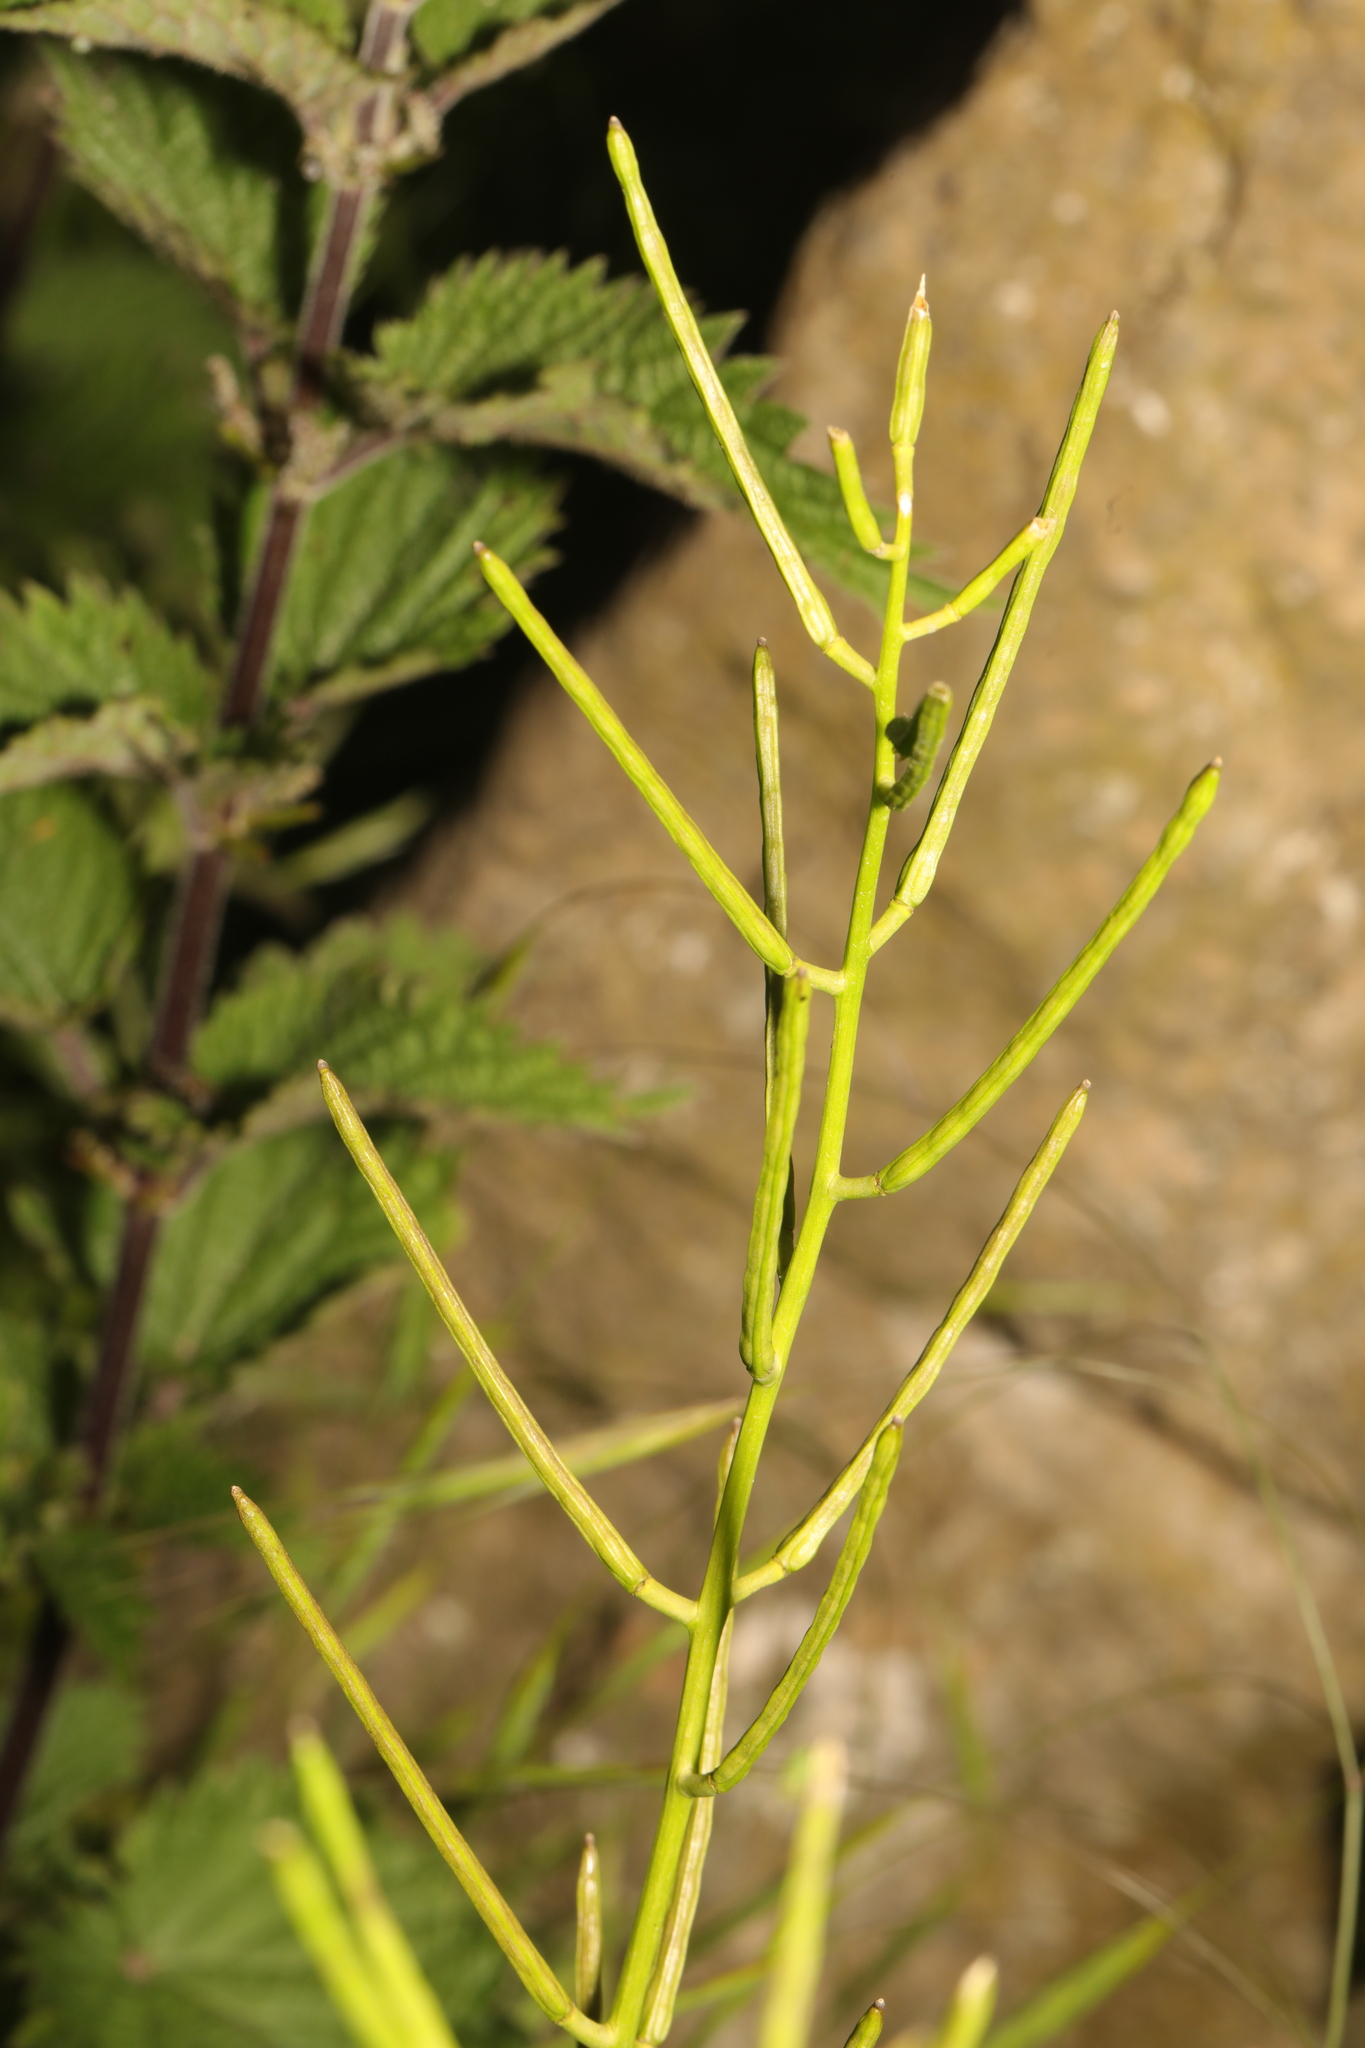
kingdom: Plantae
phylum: Tracheophyta
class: Magnoliopsida
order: Brassicales
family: Brassicaceae
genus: Alliaria
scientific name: Alliaria petiolata
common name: Garlic mustard
